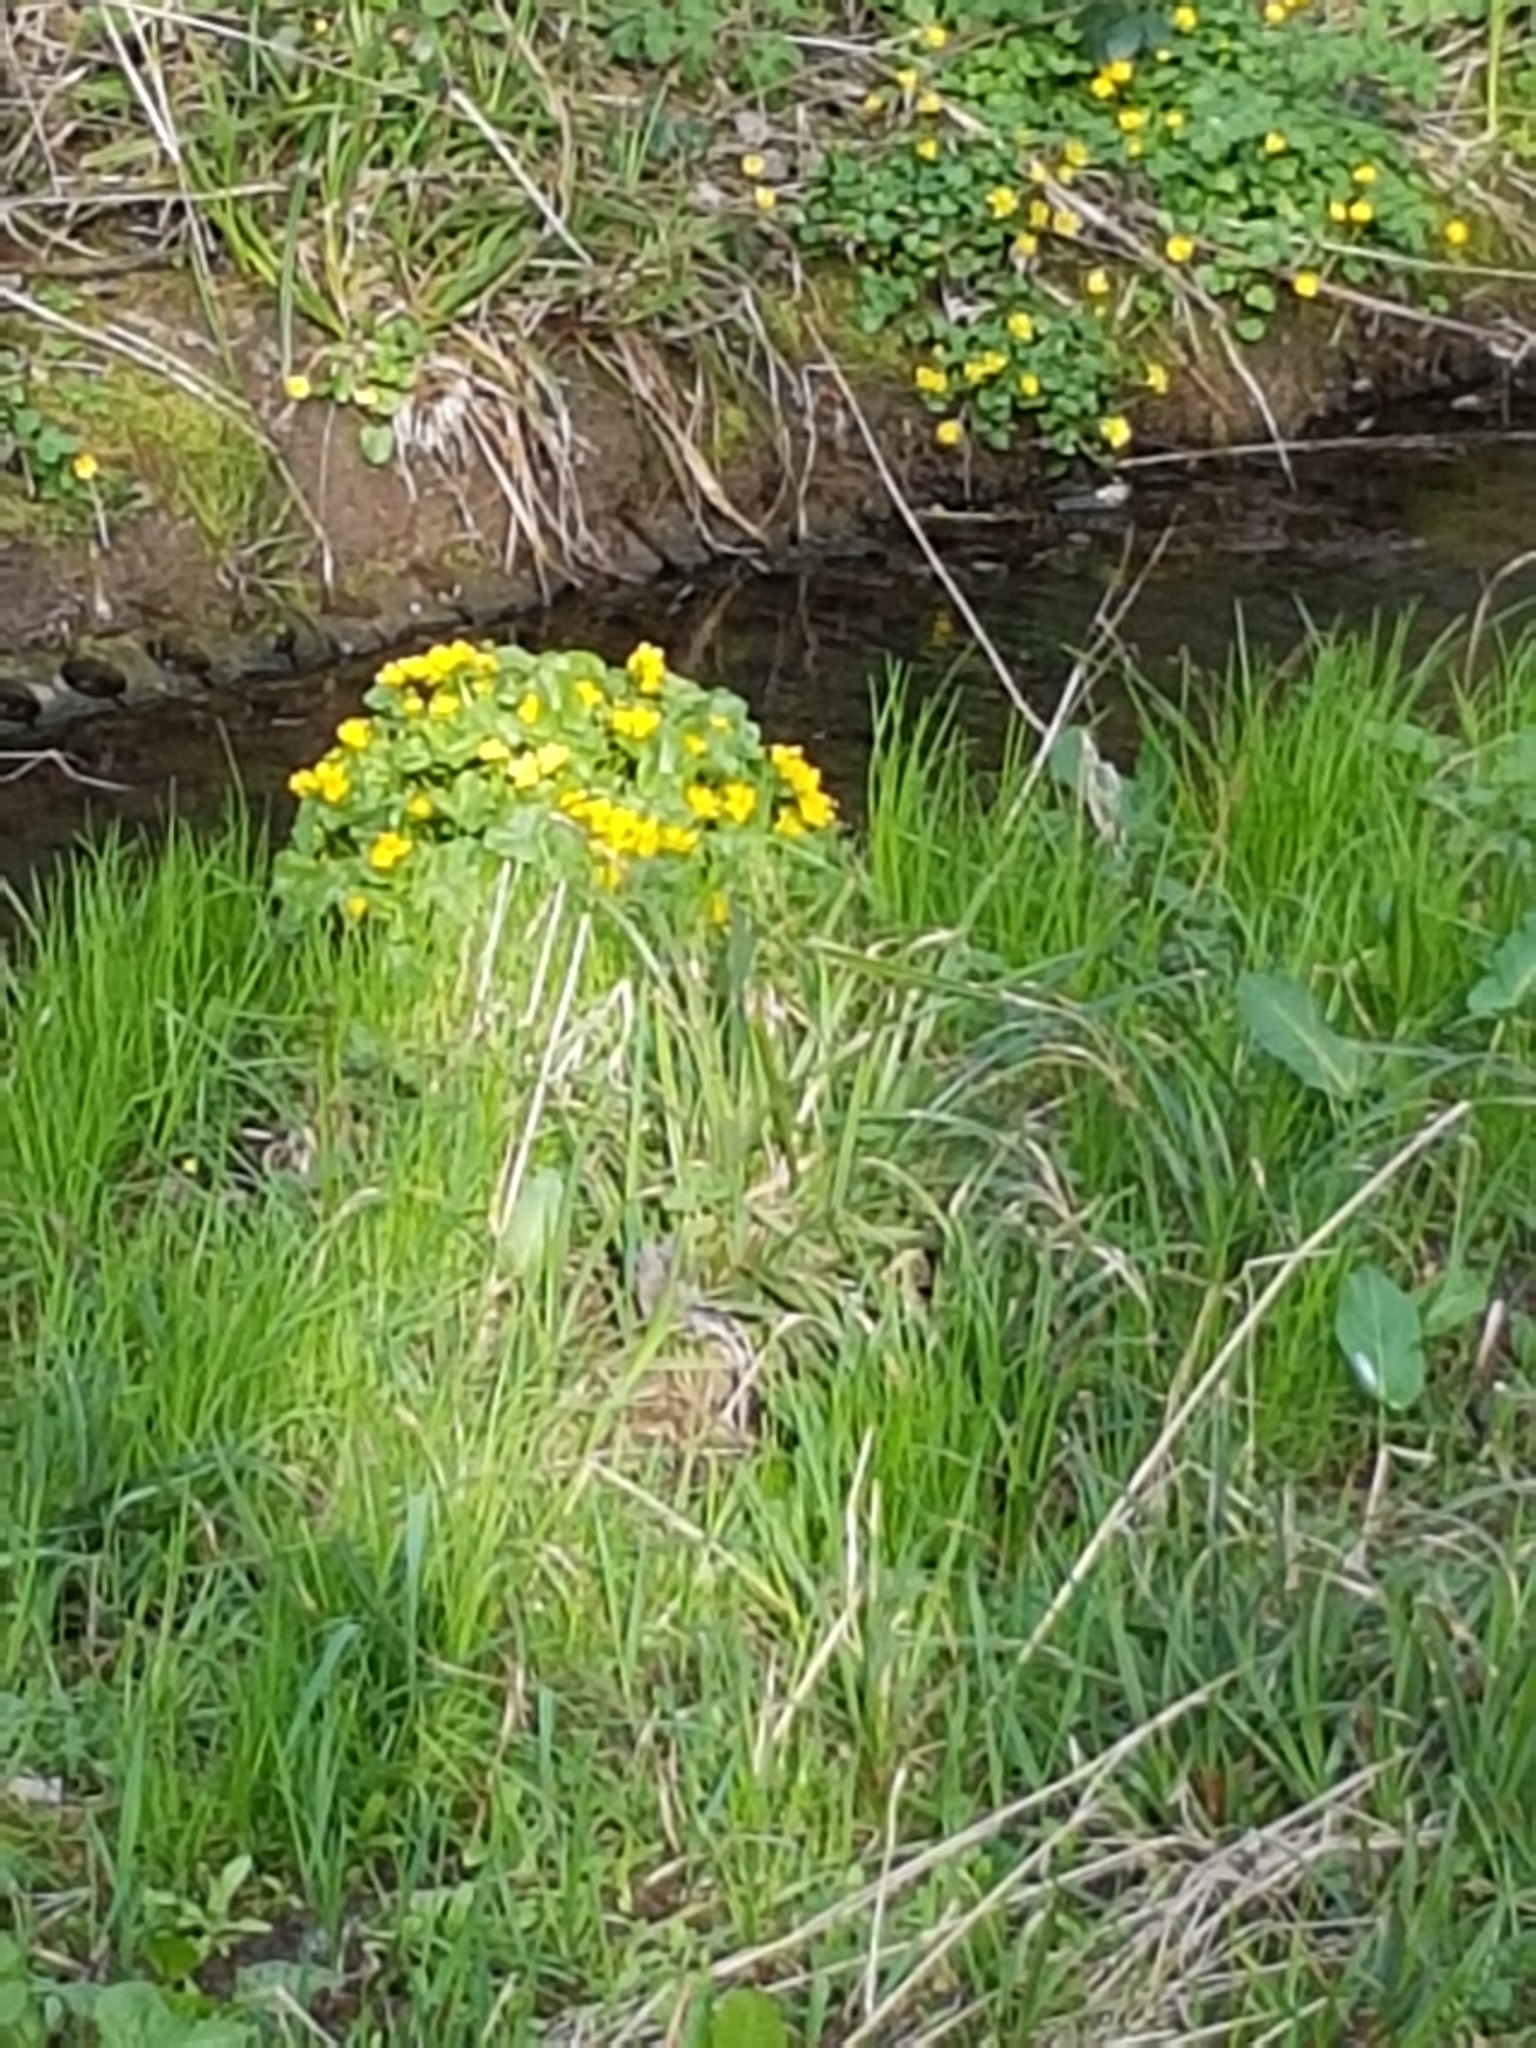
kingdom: Plantae
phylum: Tracheophyta
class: Magnoliopsida
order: Ranunculales
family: Ranunculaceae
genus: Caltha
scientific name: Caltha palustris
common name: Marsh marigold
